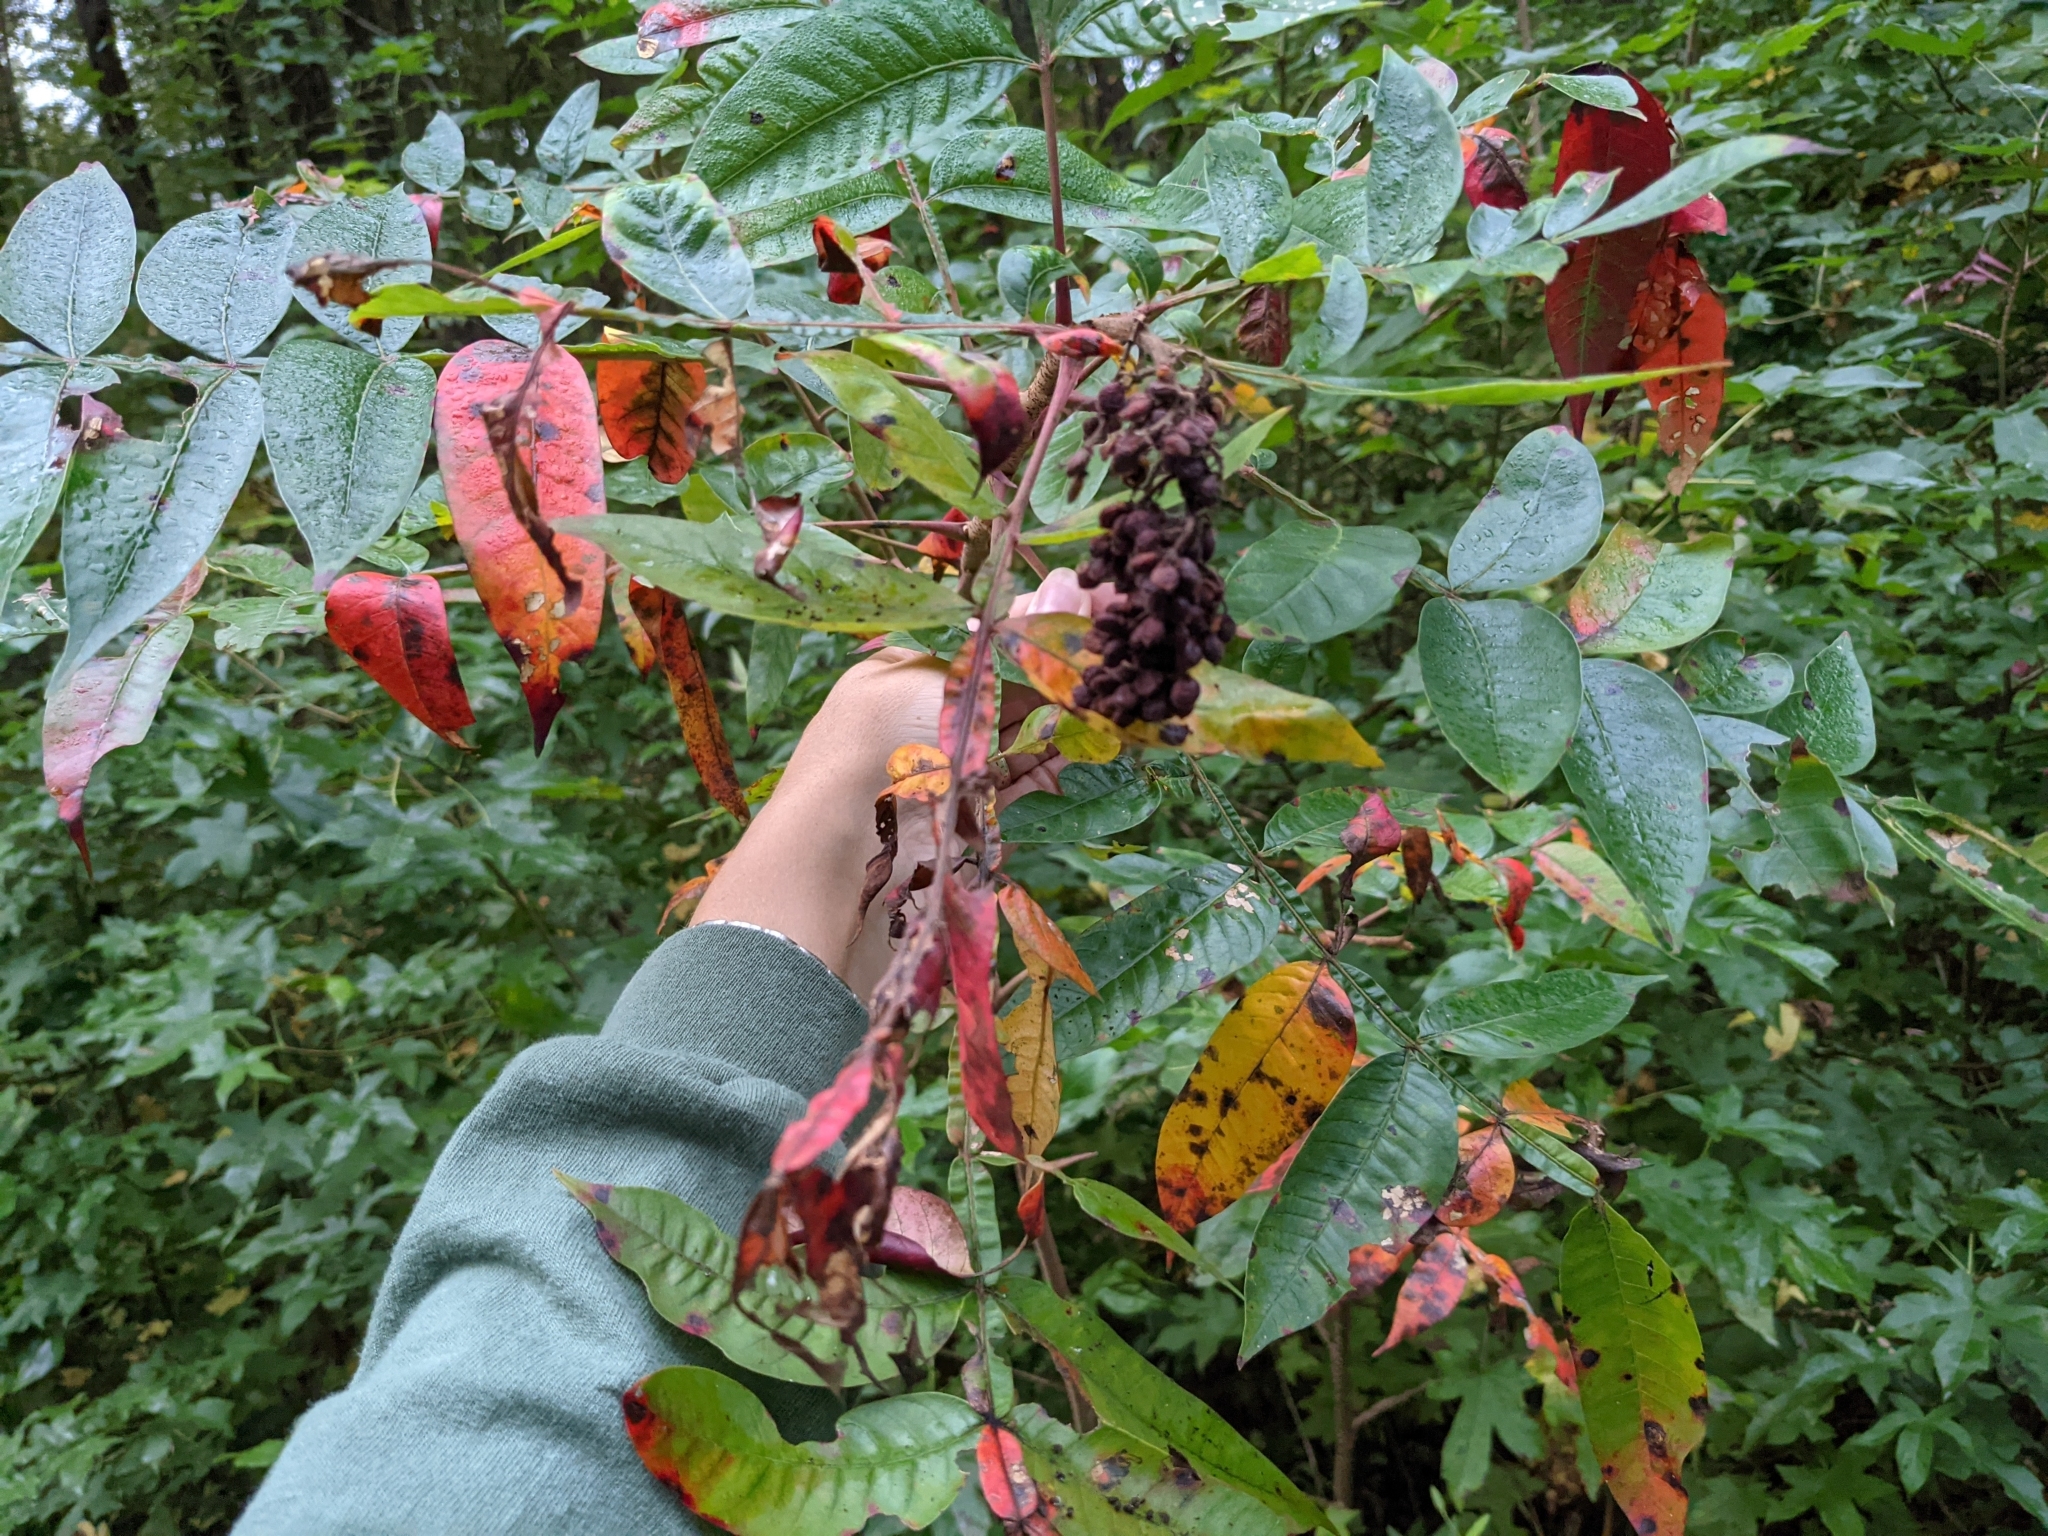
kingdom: Plantae
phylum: Tracheophyta
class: Magnoliopsida
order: Sapindales
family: Anacardiaceae
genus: Rhus
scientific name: Rhus copallina
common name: Shining sumac
